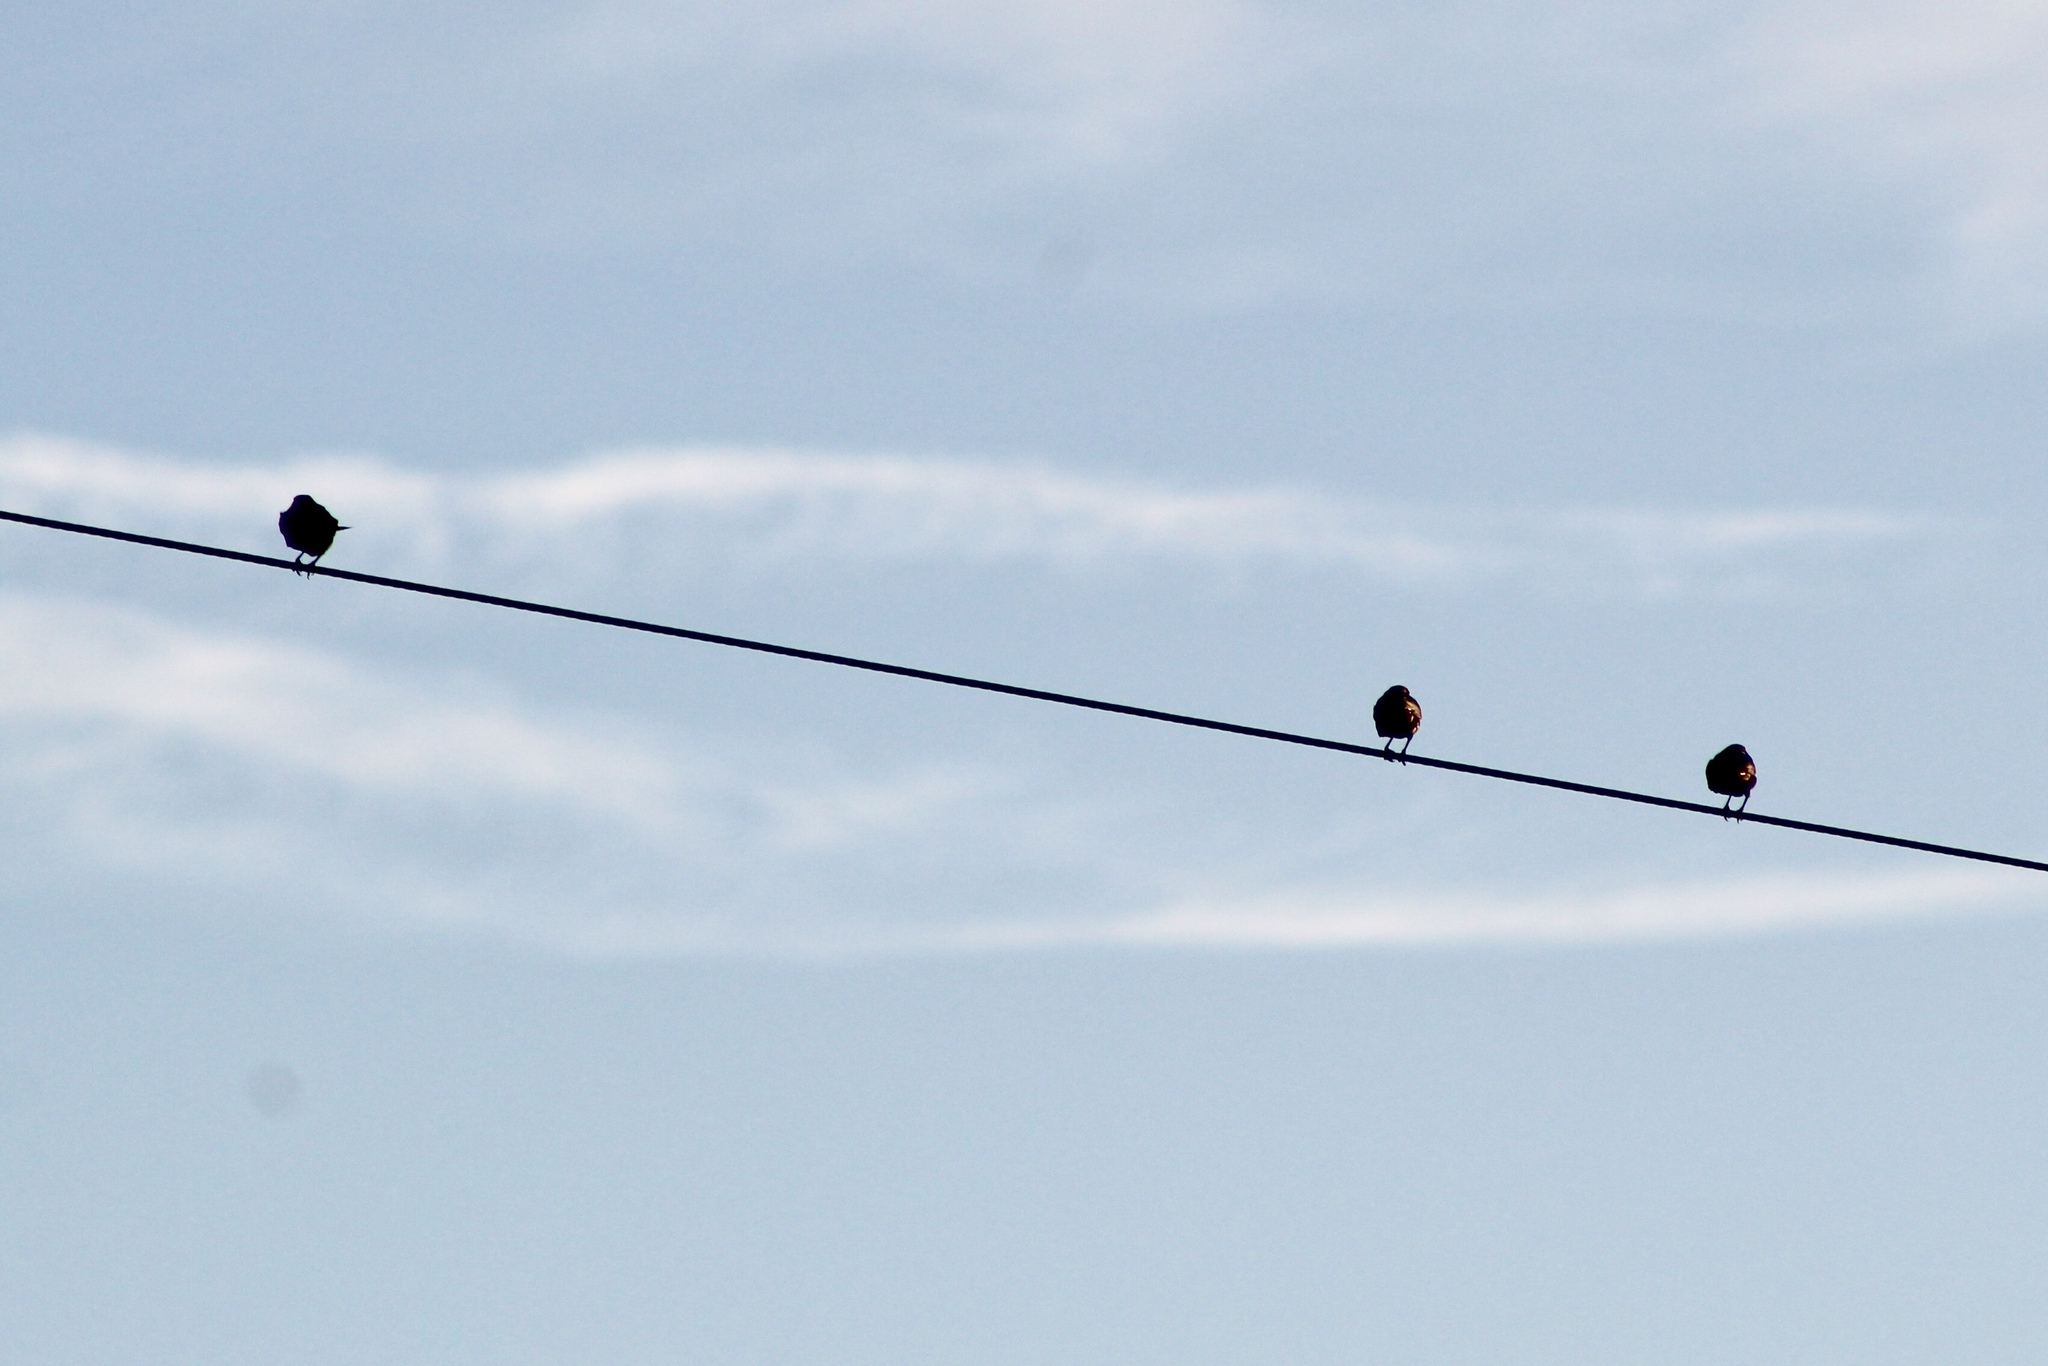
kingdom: Animalia
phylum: Chordata
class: Aves
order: Passeriformes
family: Icteridae
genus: Agelaius
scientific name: Agelaius phoeniceus
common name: Red-winged blackbird
